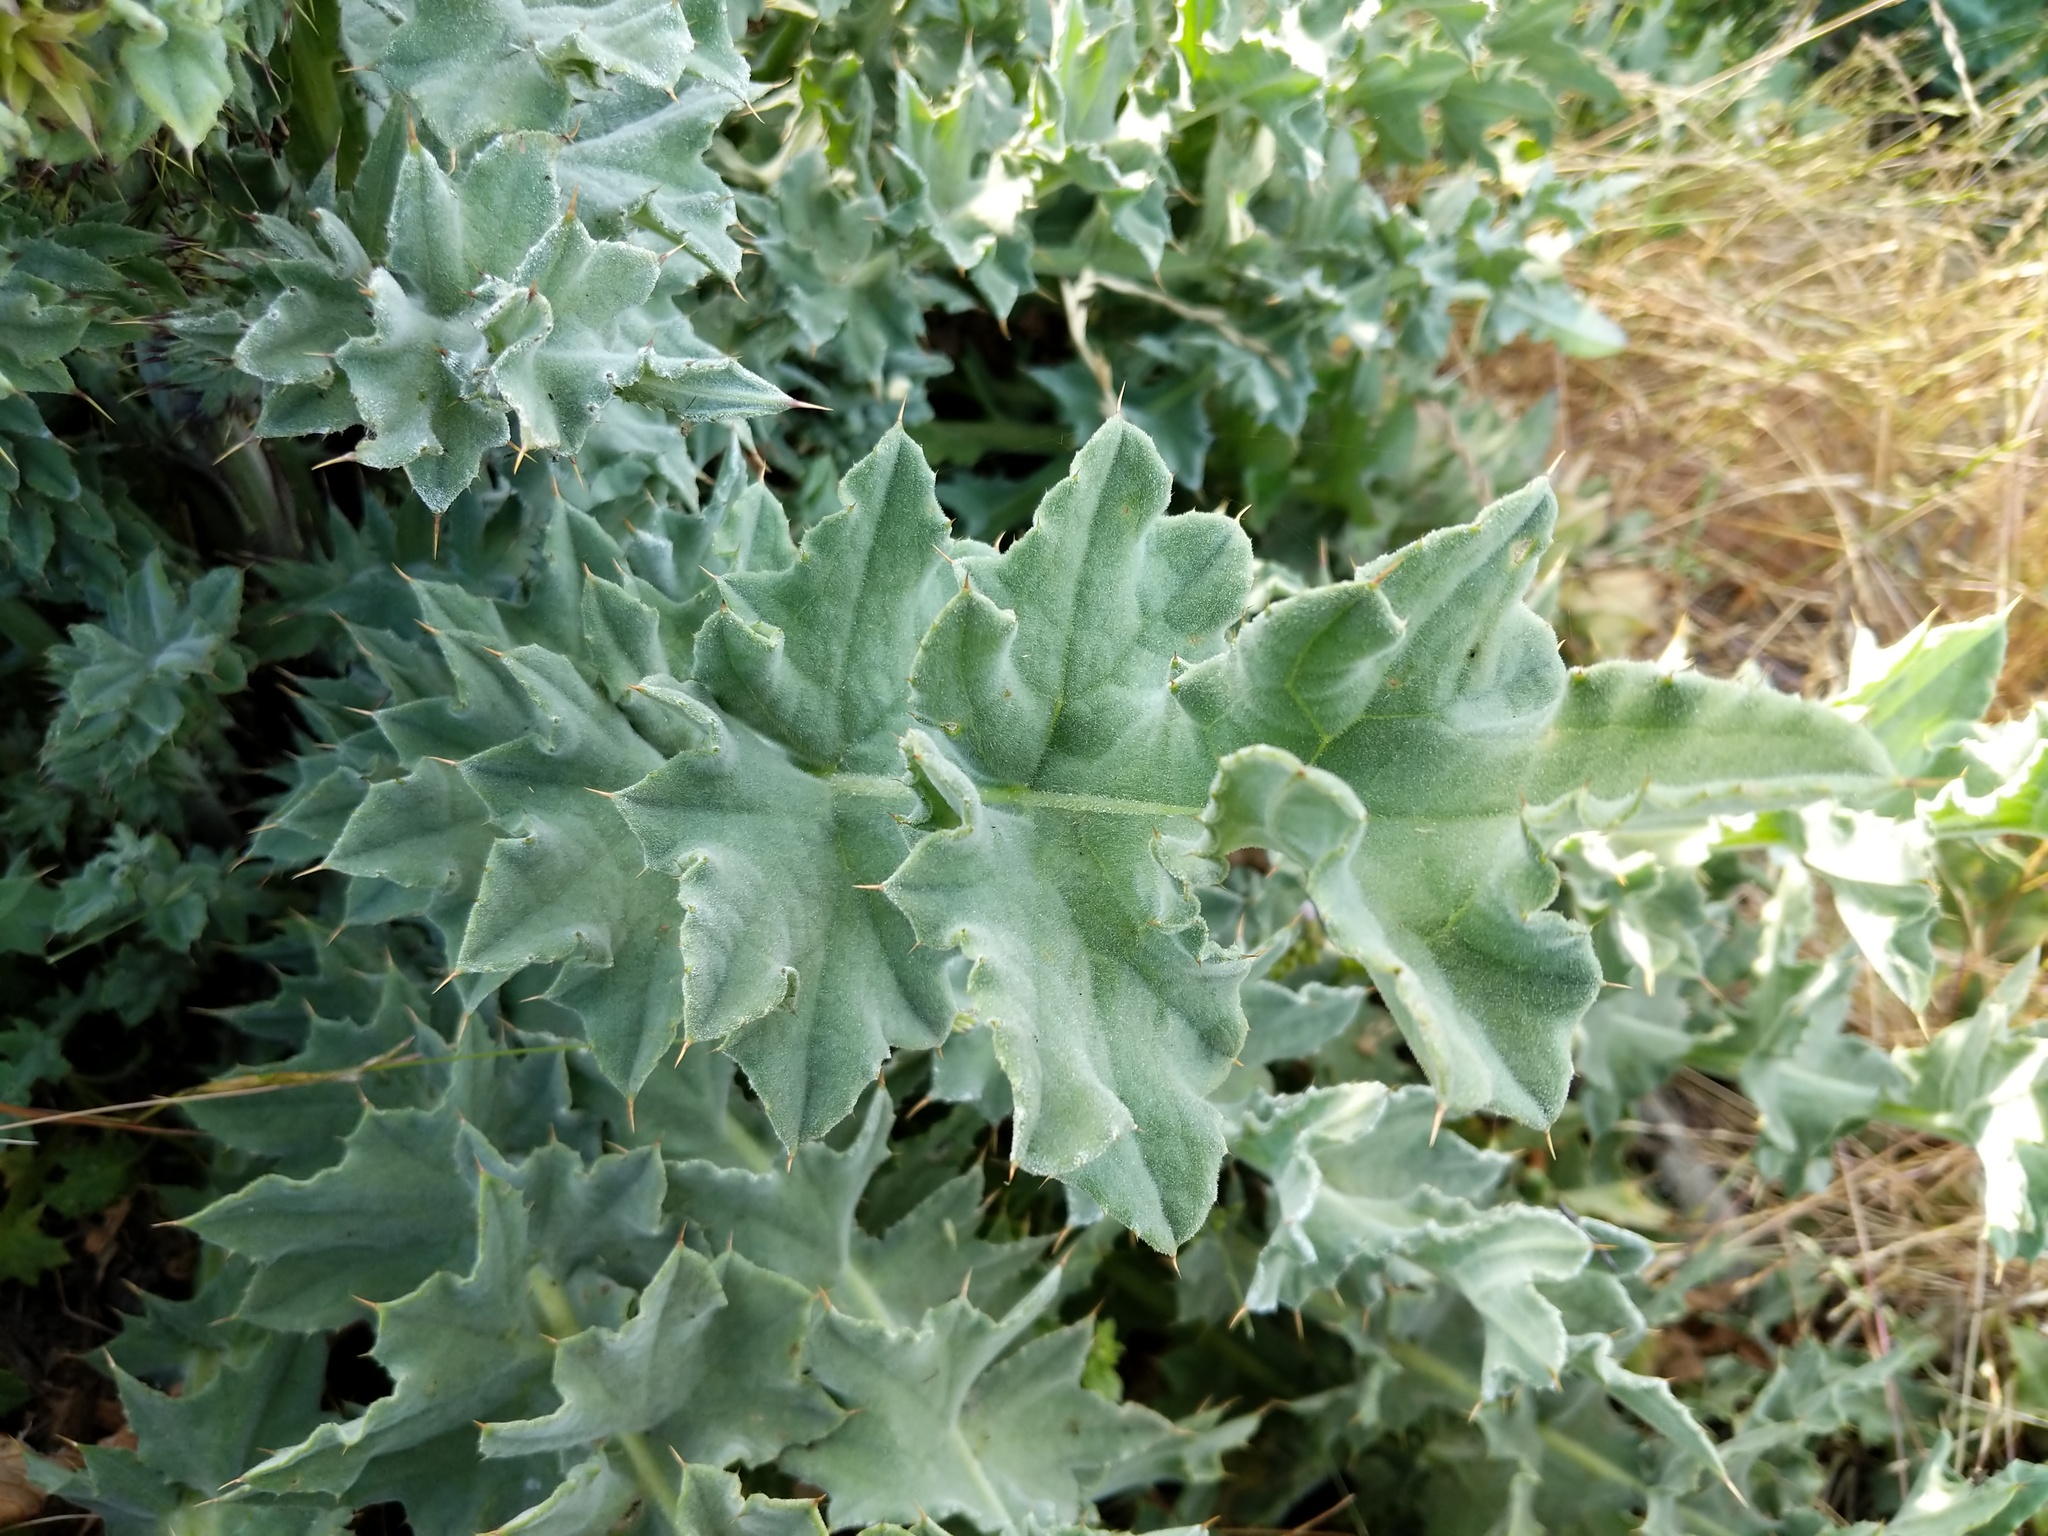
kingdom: Plantae
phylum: Tracheophyta
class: Magnoliopsida
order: Asterales
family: Asteraceae
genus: Cirsium
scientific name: Cirsium fontinale
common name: Fountain thistle
